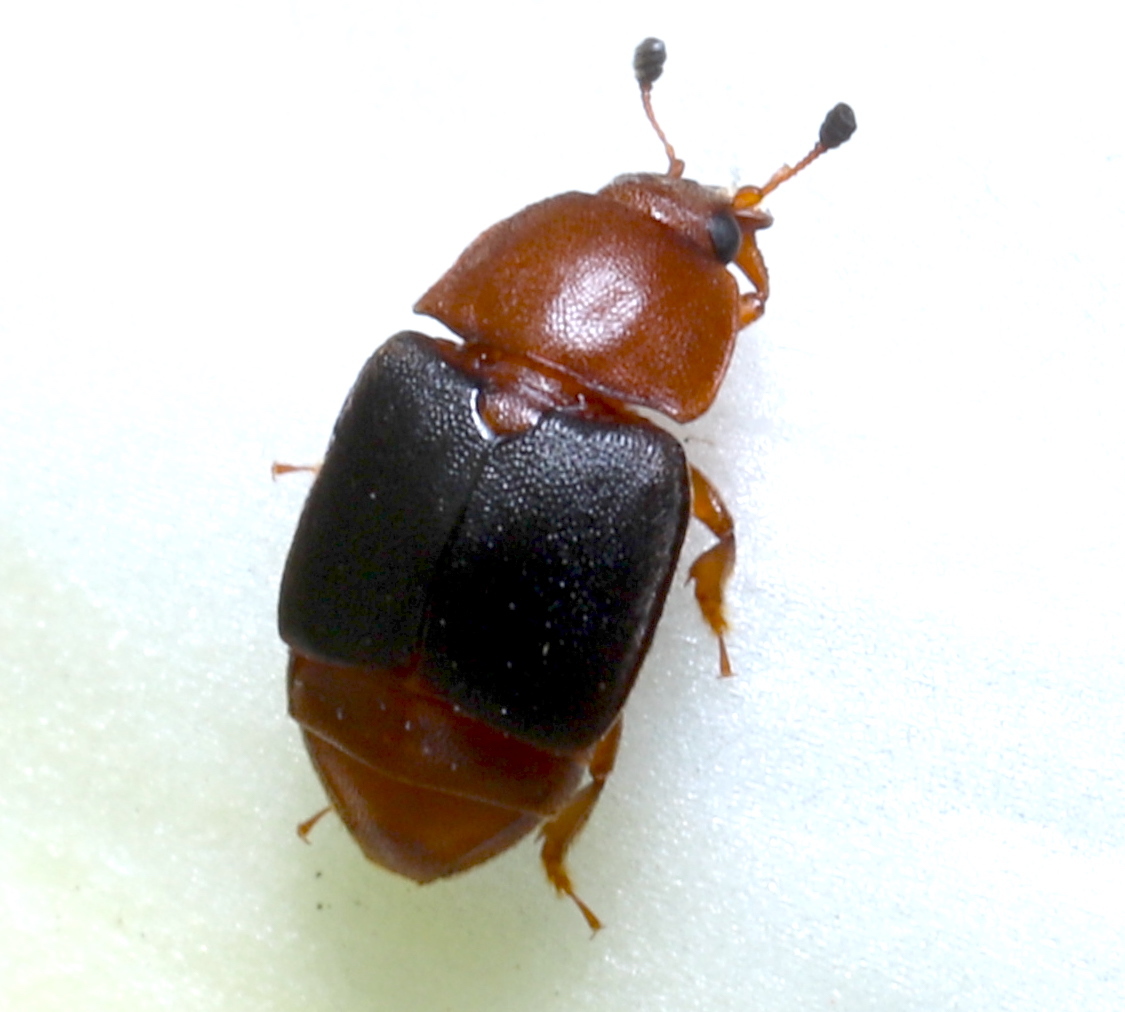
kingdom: Animalia
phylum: Arthropoda
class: Insecta
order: Coleoptera
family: Nitidulidae
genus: Carpophilus
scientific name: Carpophilus
